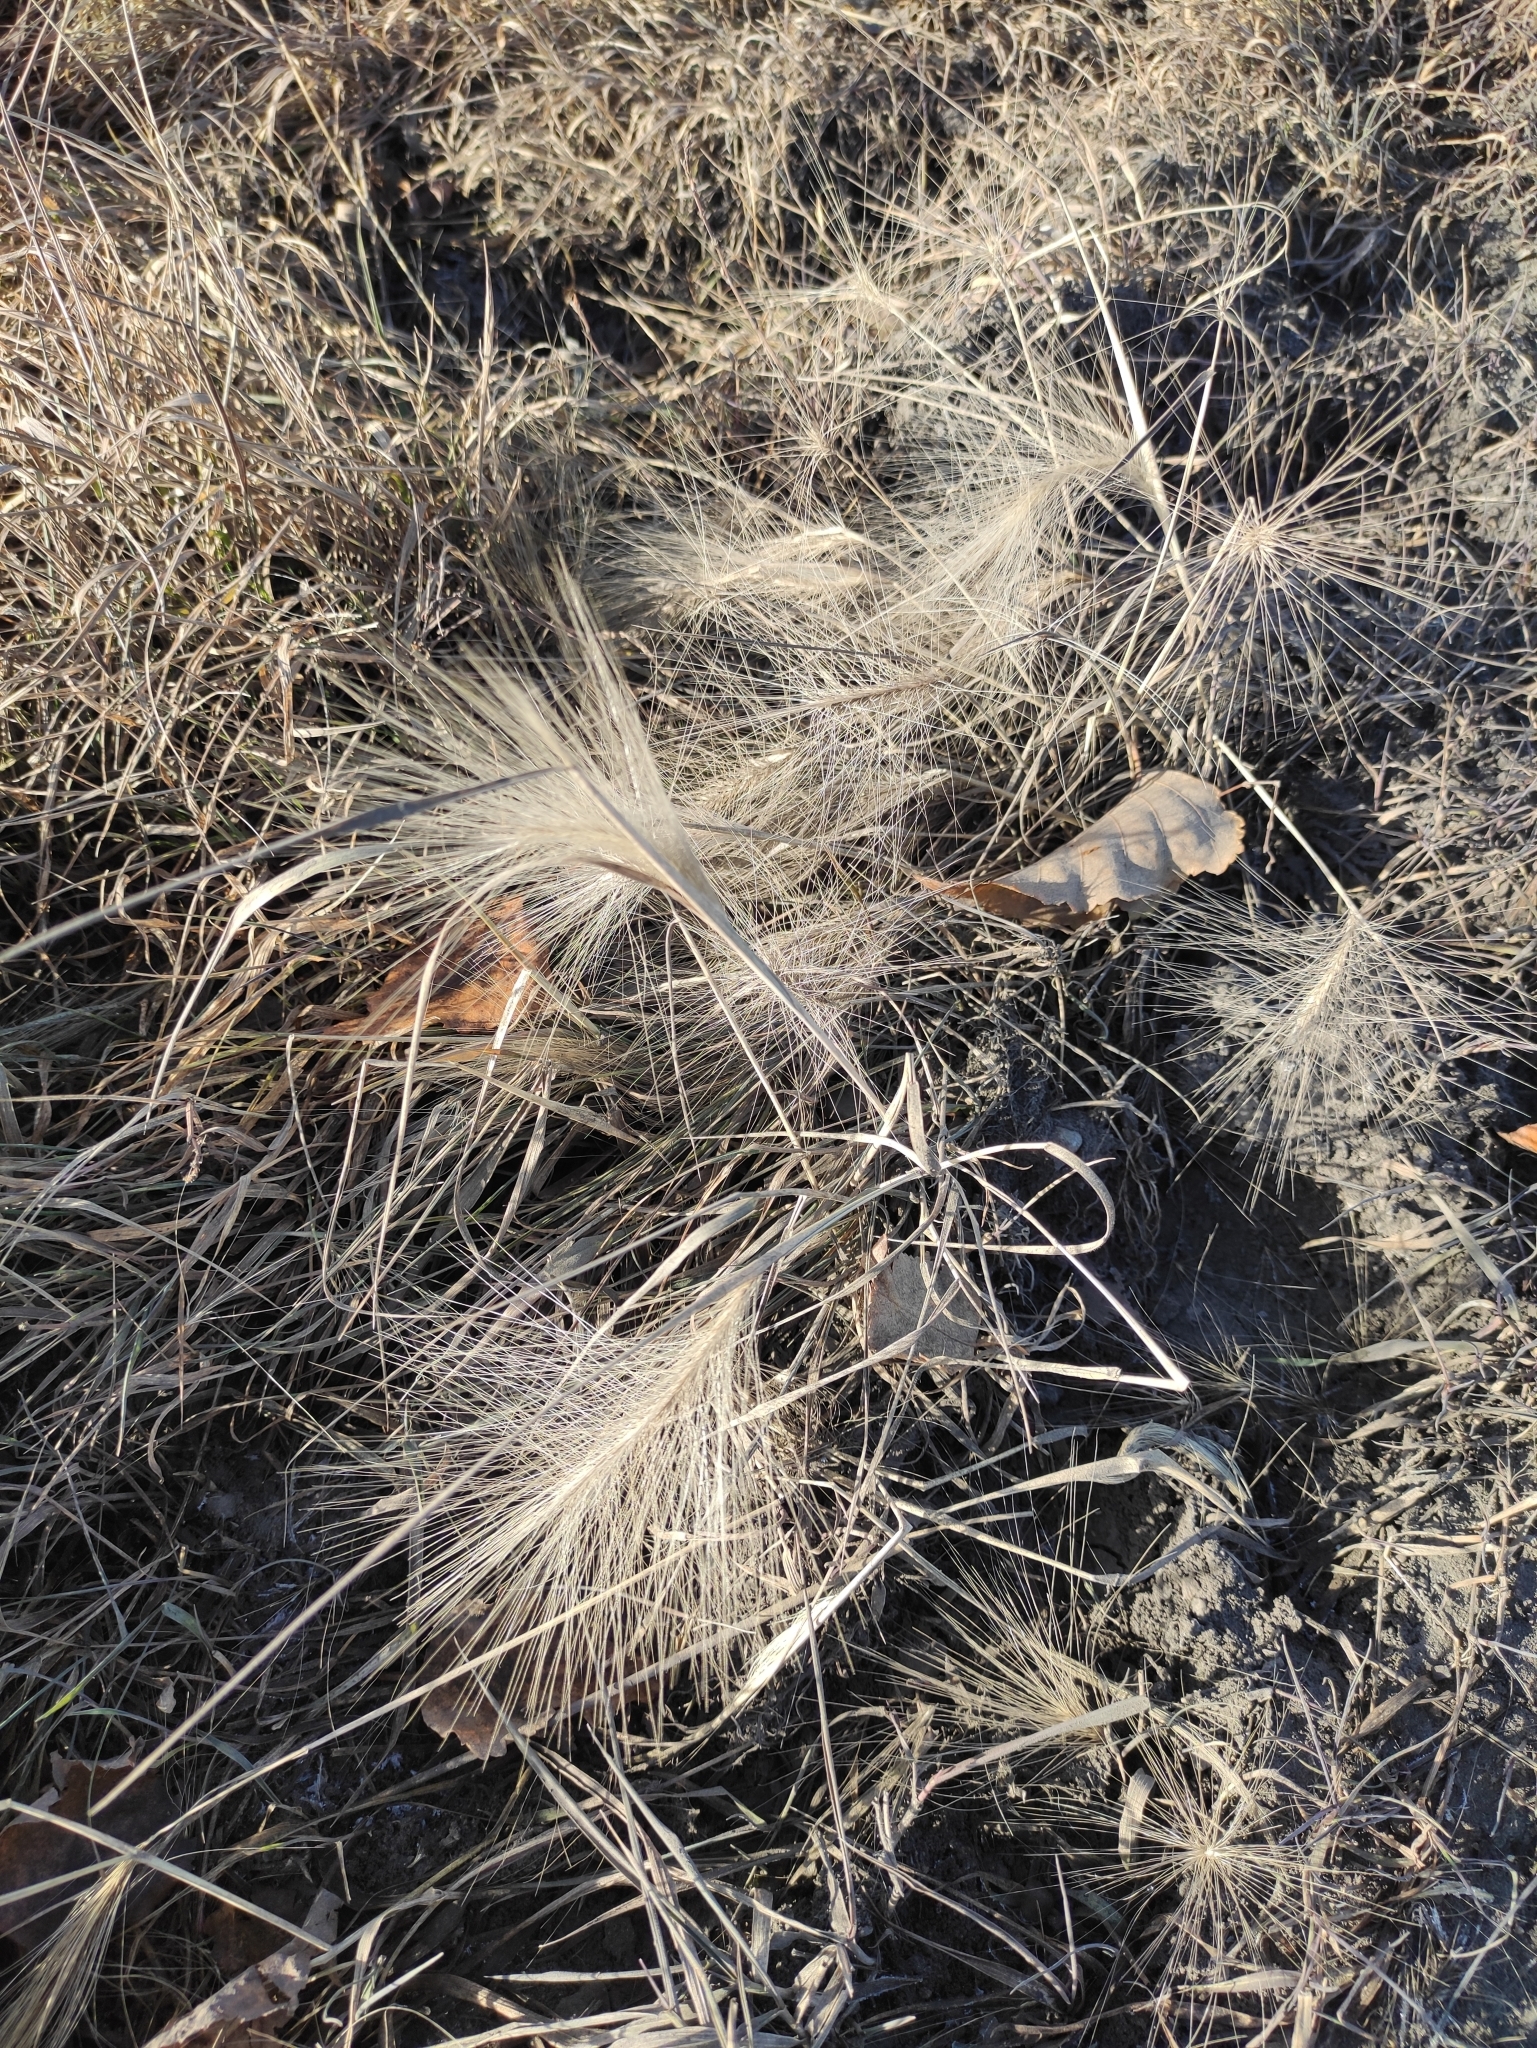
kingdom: Plantae
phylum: Tracheophyta
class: Liliopsida
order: Poales
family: Poaceae
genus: Hordeum
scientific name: Hordeum jubatum
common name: Foxtail barley
